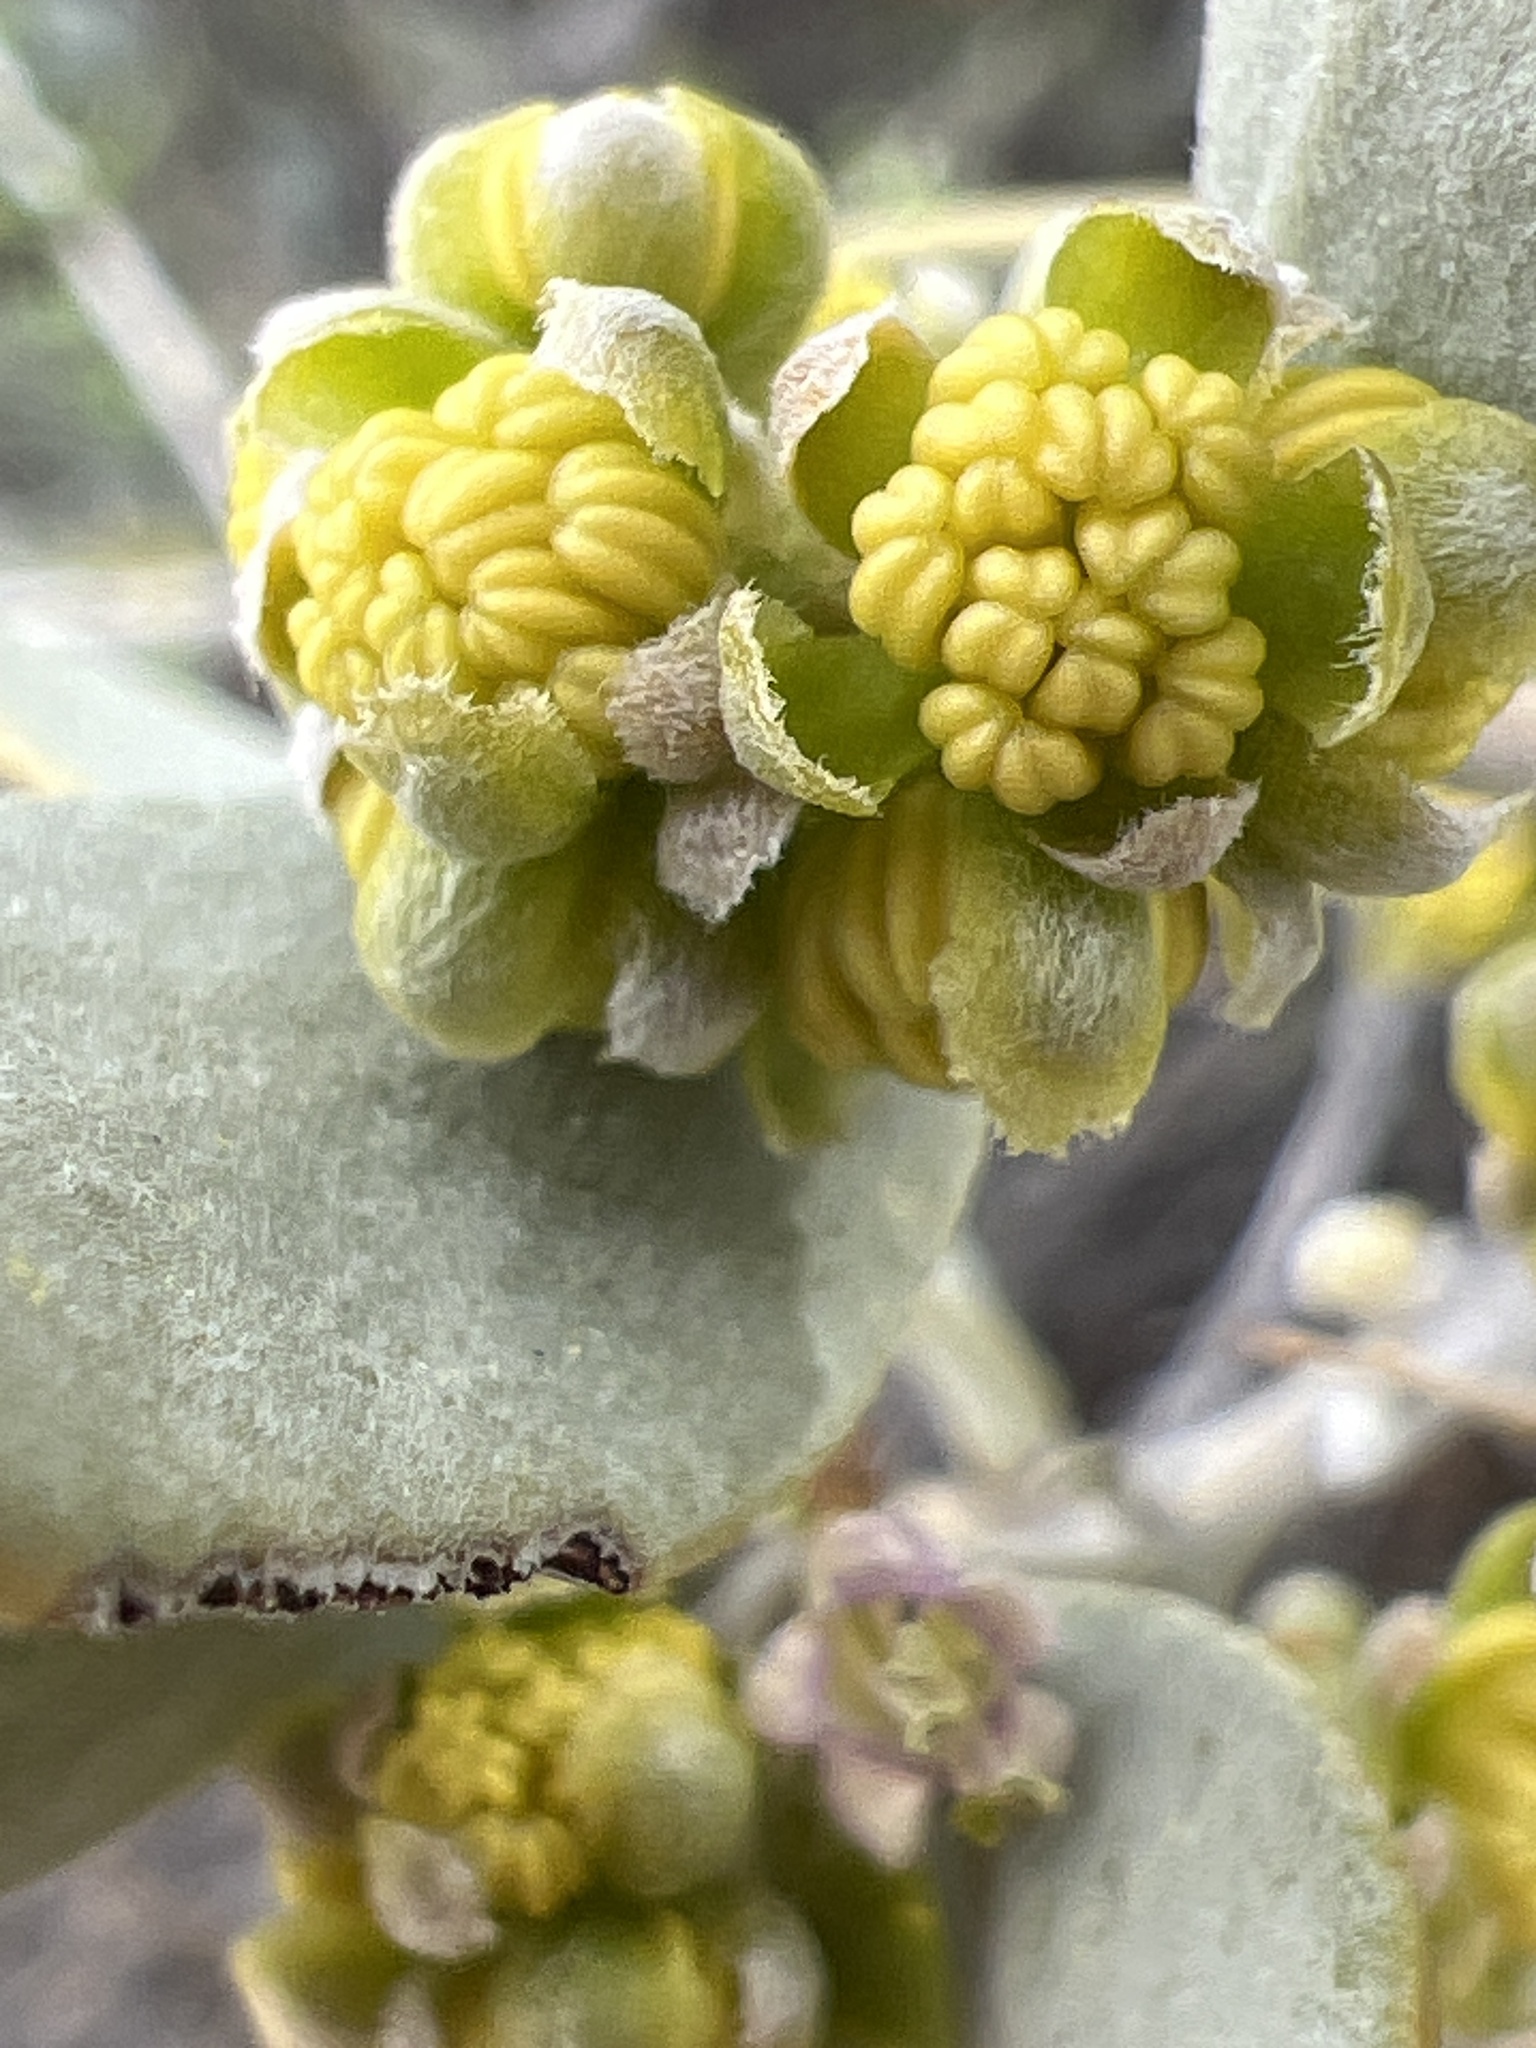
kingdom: Plantae
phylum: Tracheophyta
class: Magnoliopsida
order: Caryophyllales
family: Simmondsiaceae
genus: Simmondsia
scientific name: Simmondsia chinensis
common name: Jojoba
